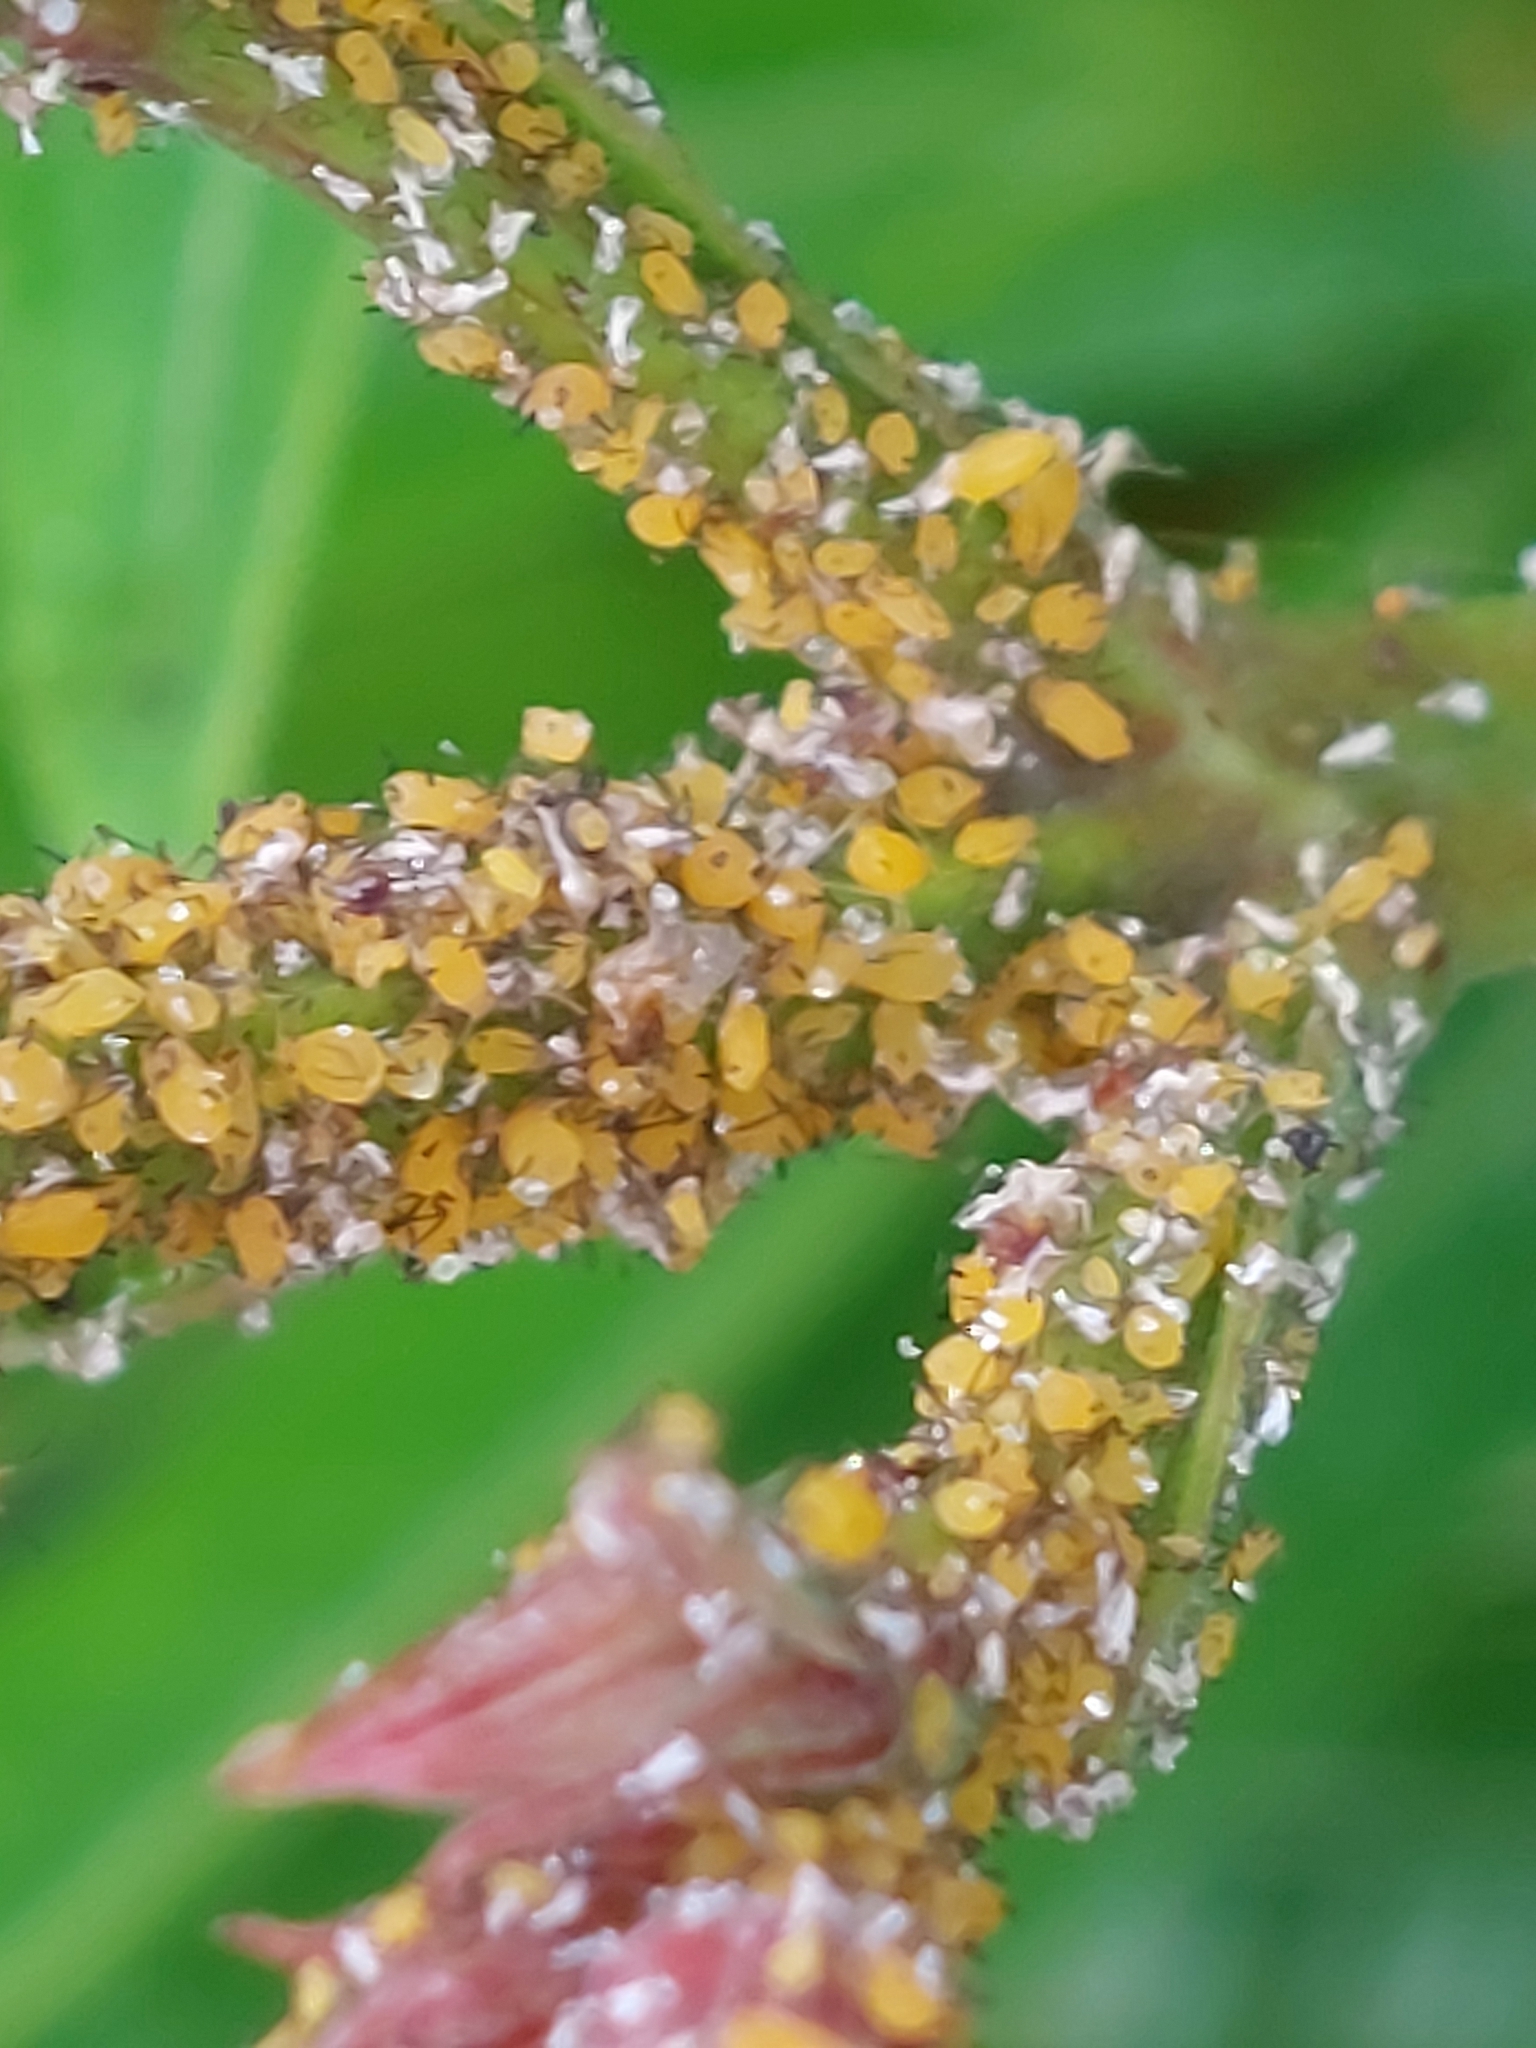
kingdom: Animalia
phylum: Arthropoda
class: Insecta
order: Hemiptera
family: Aphididae
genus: Aphis
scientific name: Aphis nerii
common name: Oleander aphid
